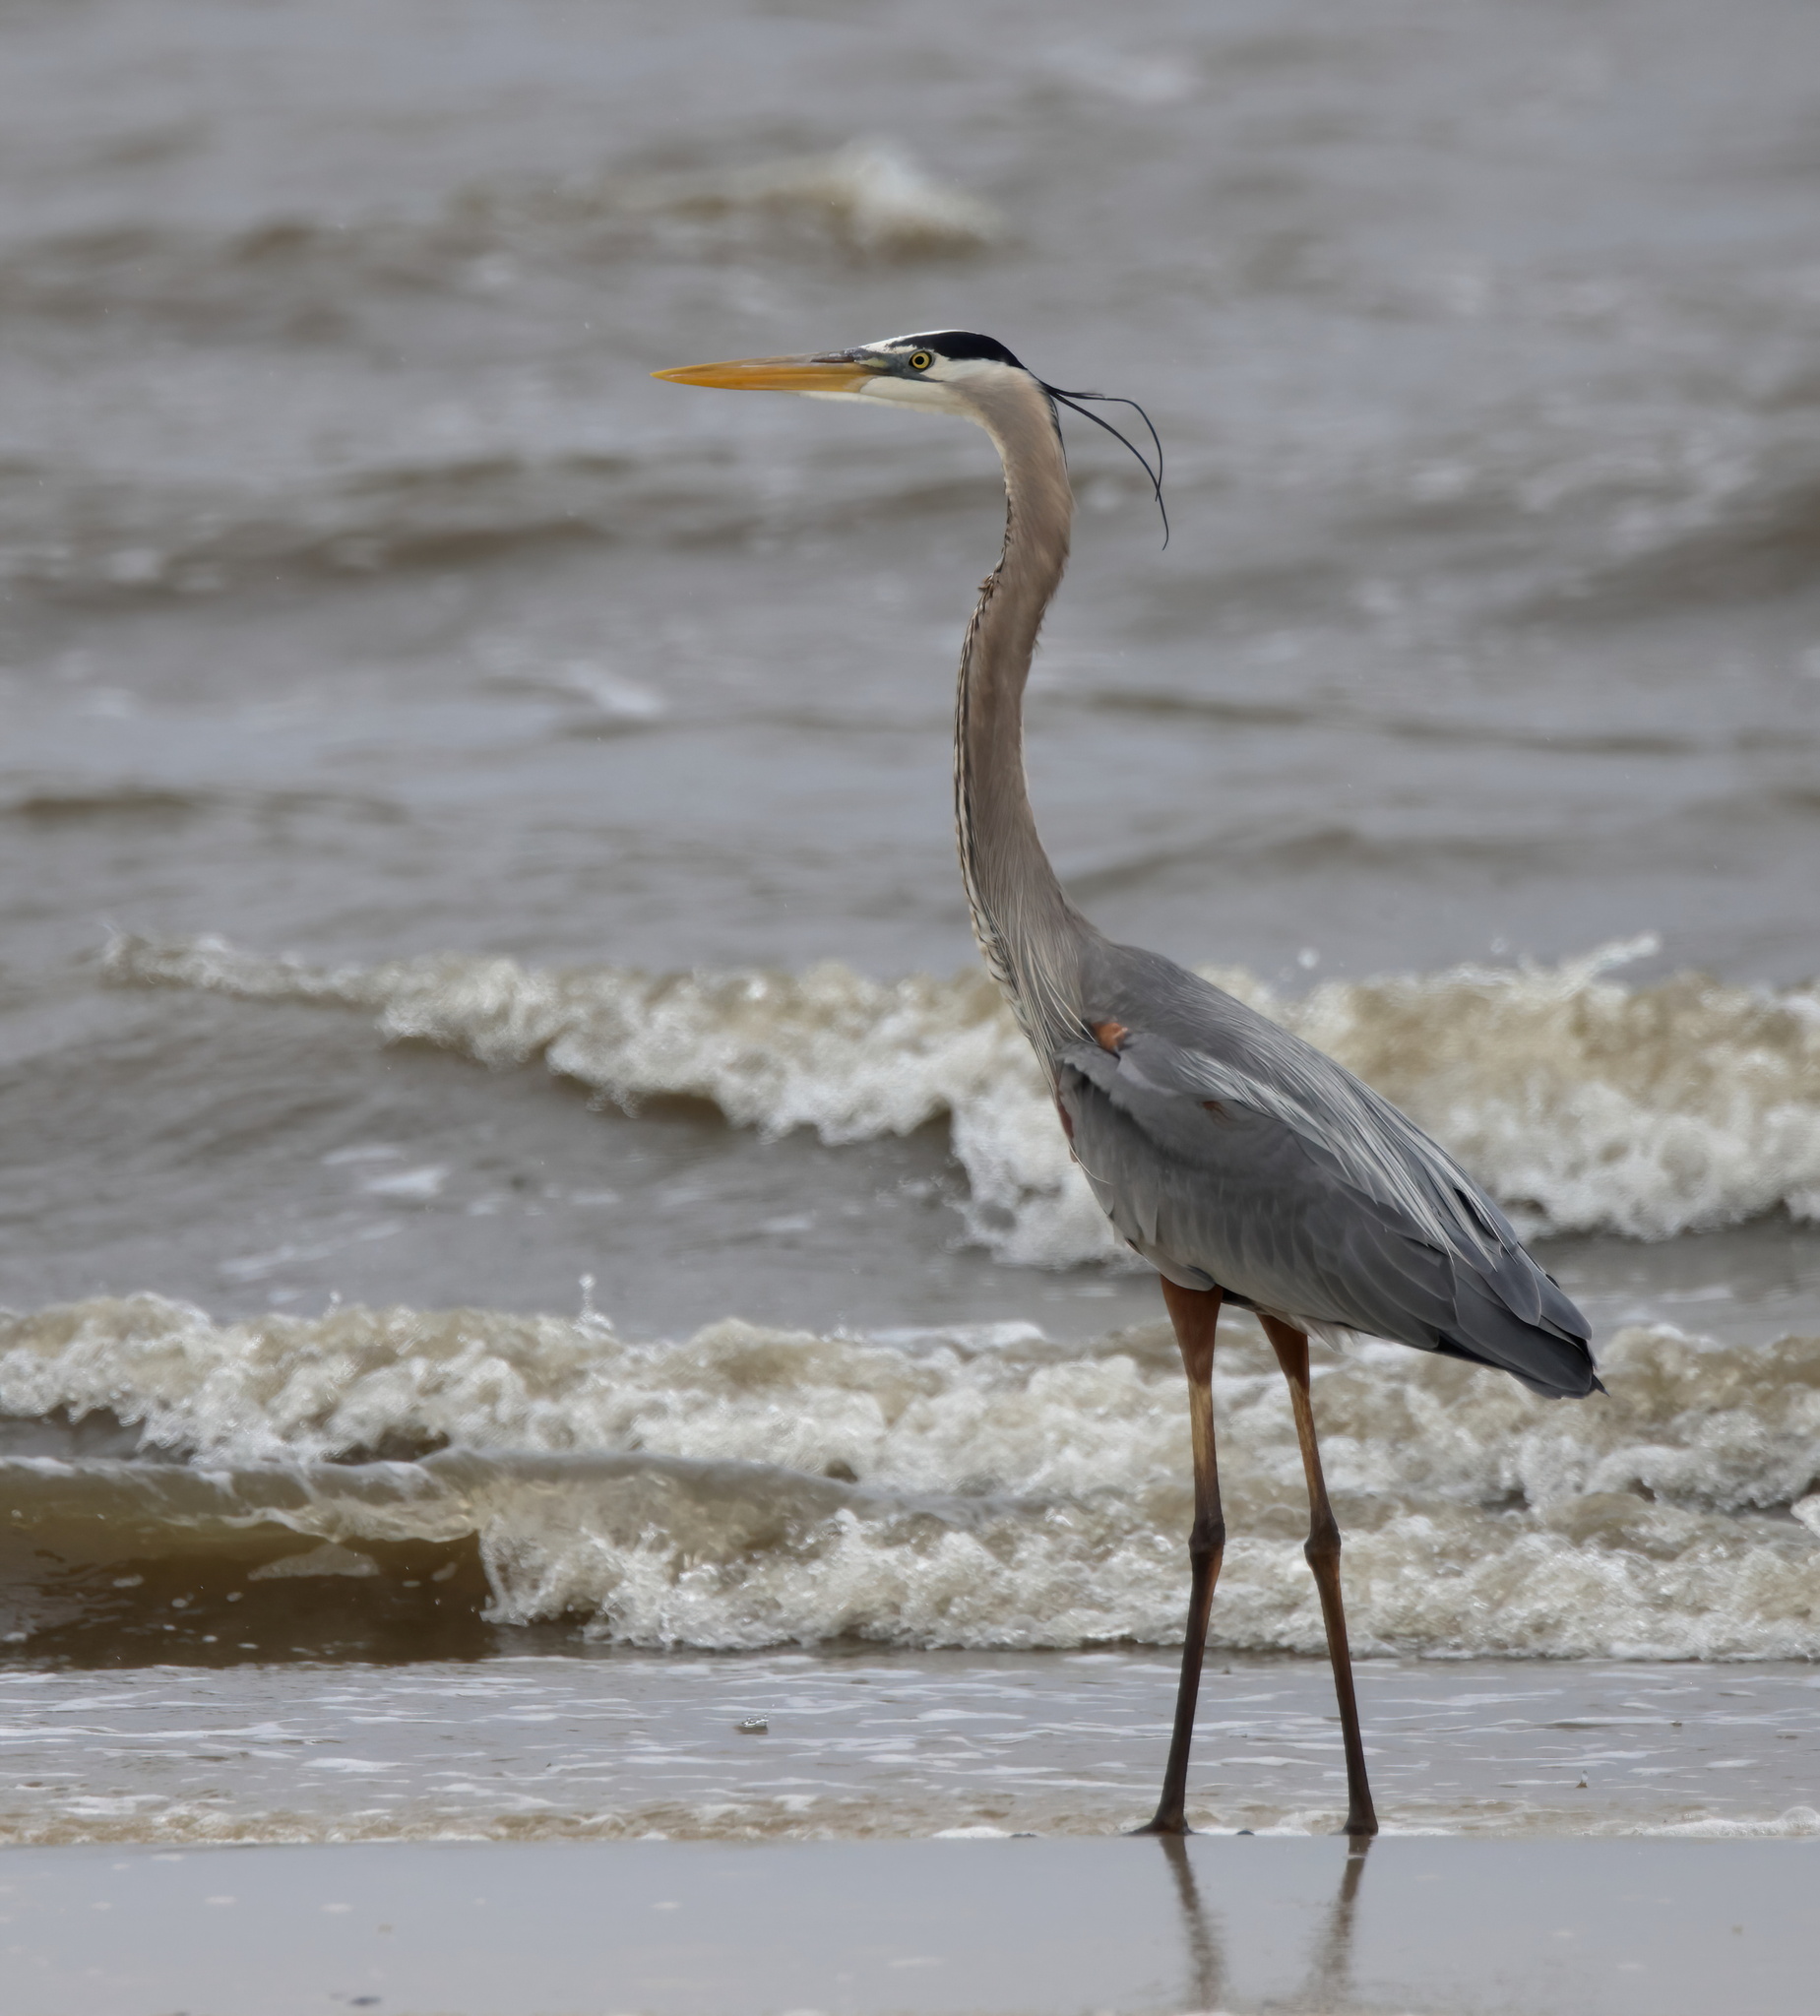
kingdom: Animalia
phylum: Chordata
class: Aves
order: Pelecaniformes
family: Ardeidae
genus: Ardea
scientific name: Ardea herodias
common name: Great blue heron
